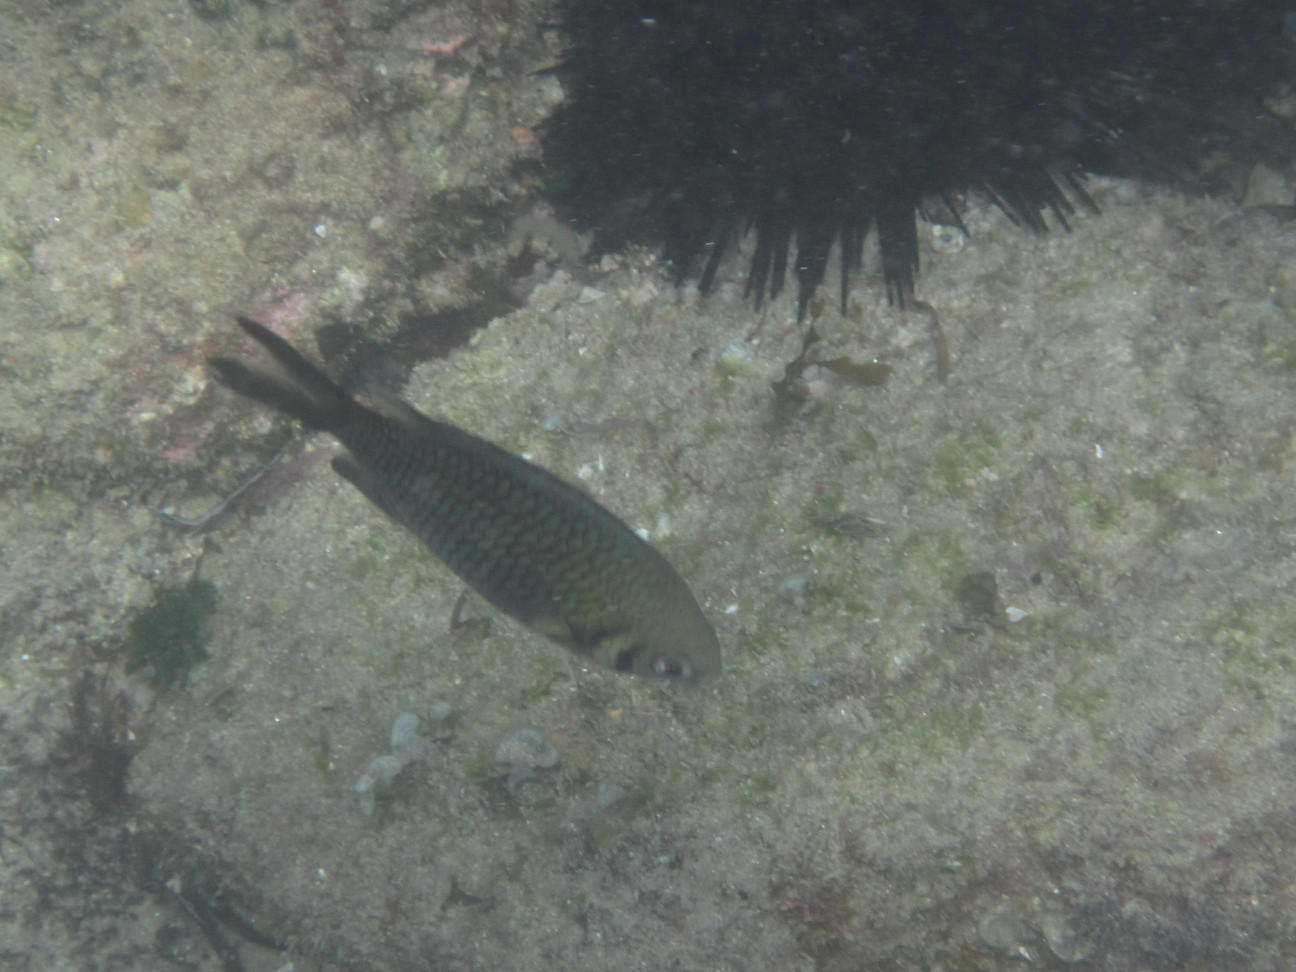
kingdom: Animalia
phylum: Chordata
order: Perciformes
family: Pomacentridae
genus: Chromis
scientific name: Chromis weberi
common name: Weber's chromis
